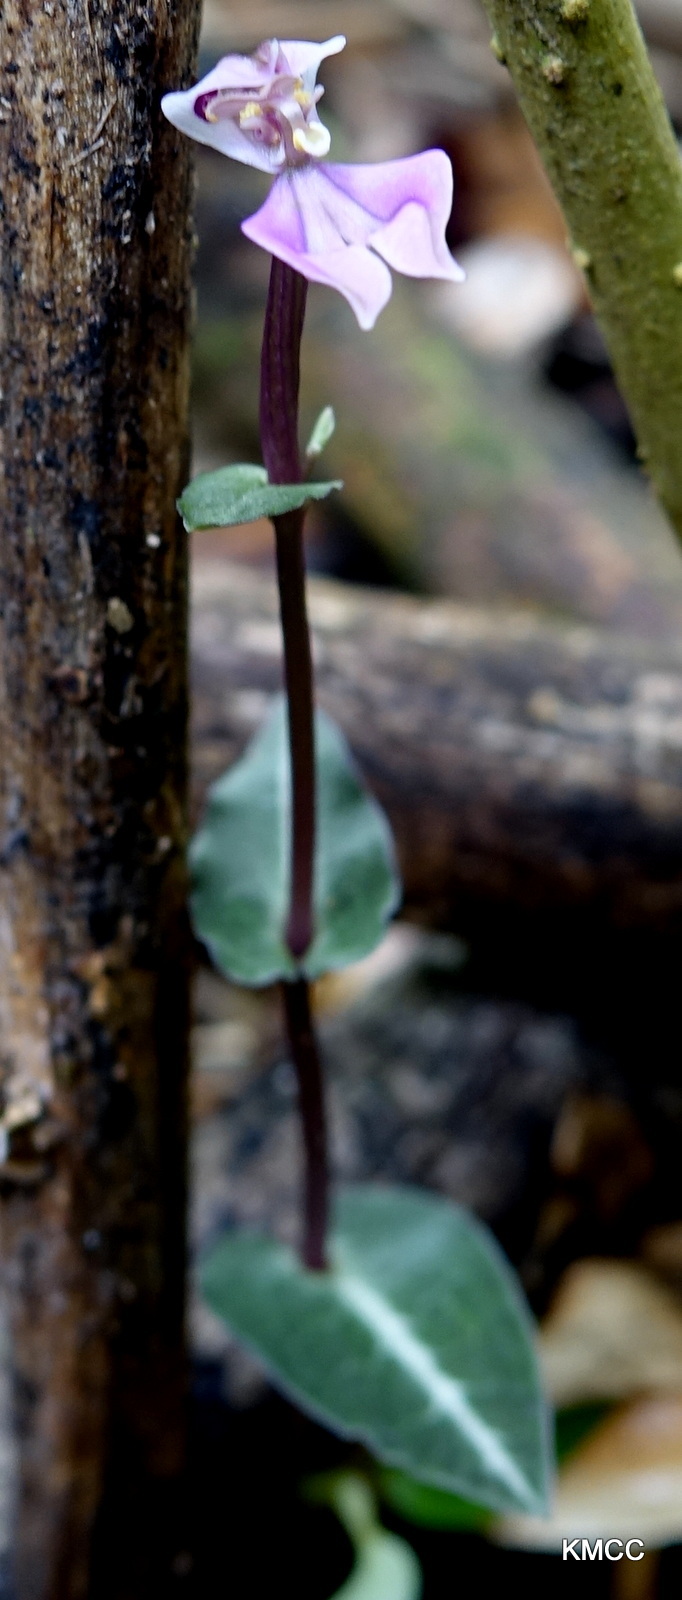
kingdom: Plantae
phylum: Tracheophyta
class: Liliopsida
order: Asparagales
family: Orchidaceae
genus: Disperis
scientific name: Disperis cordata
